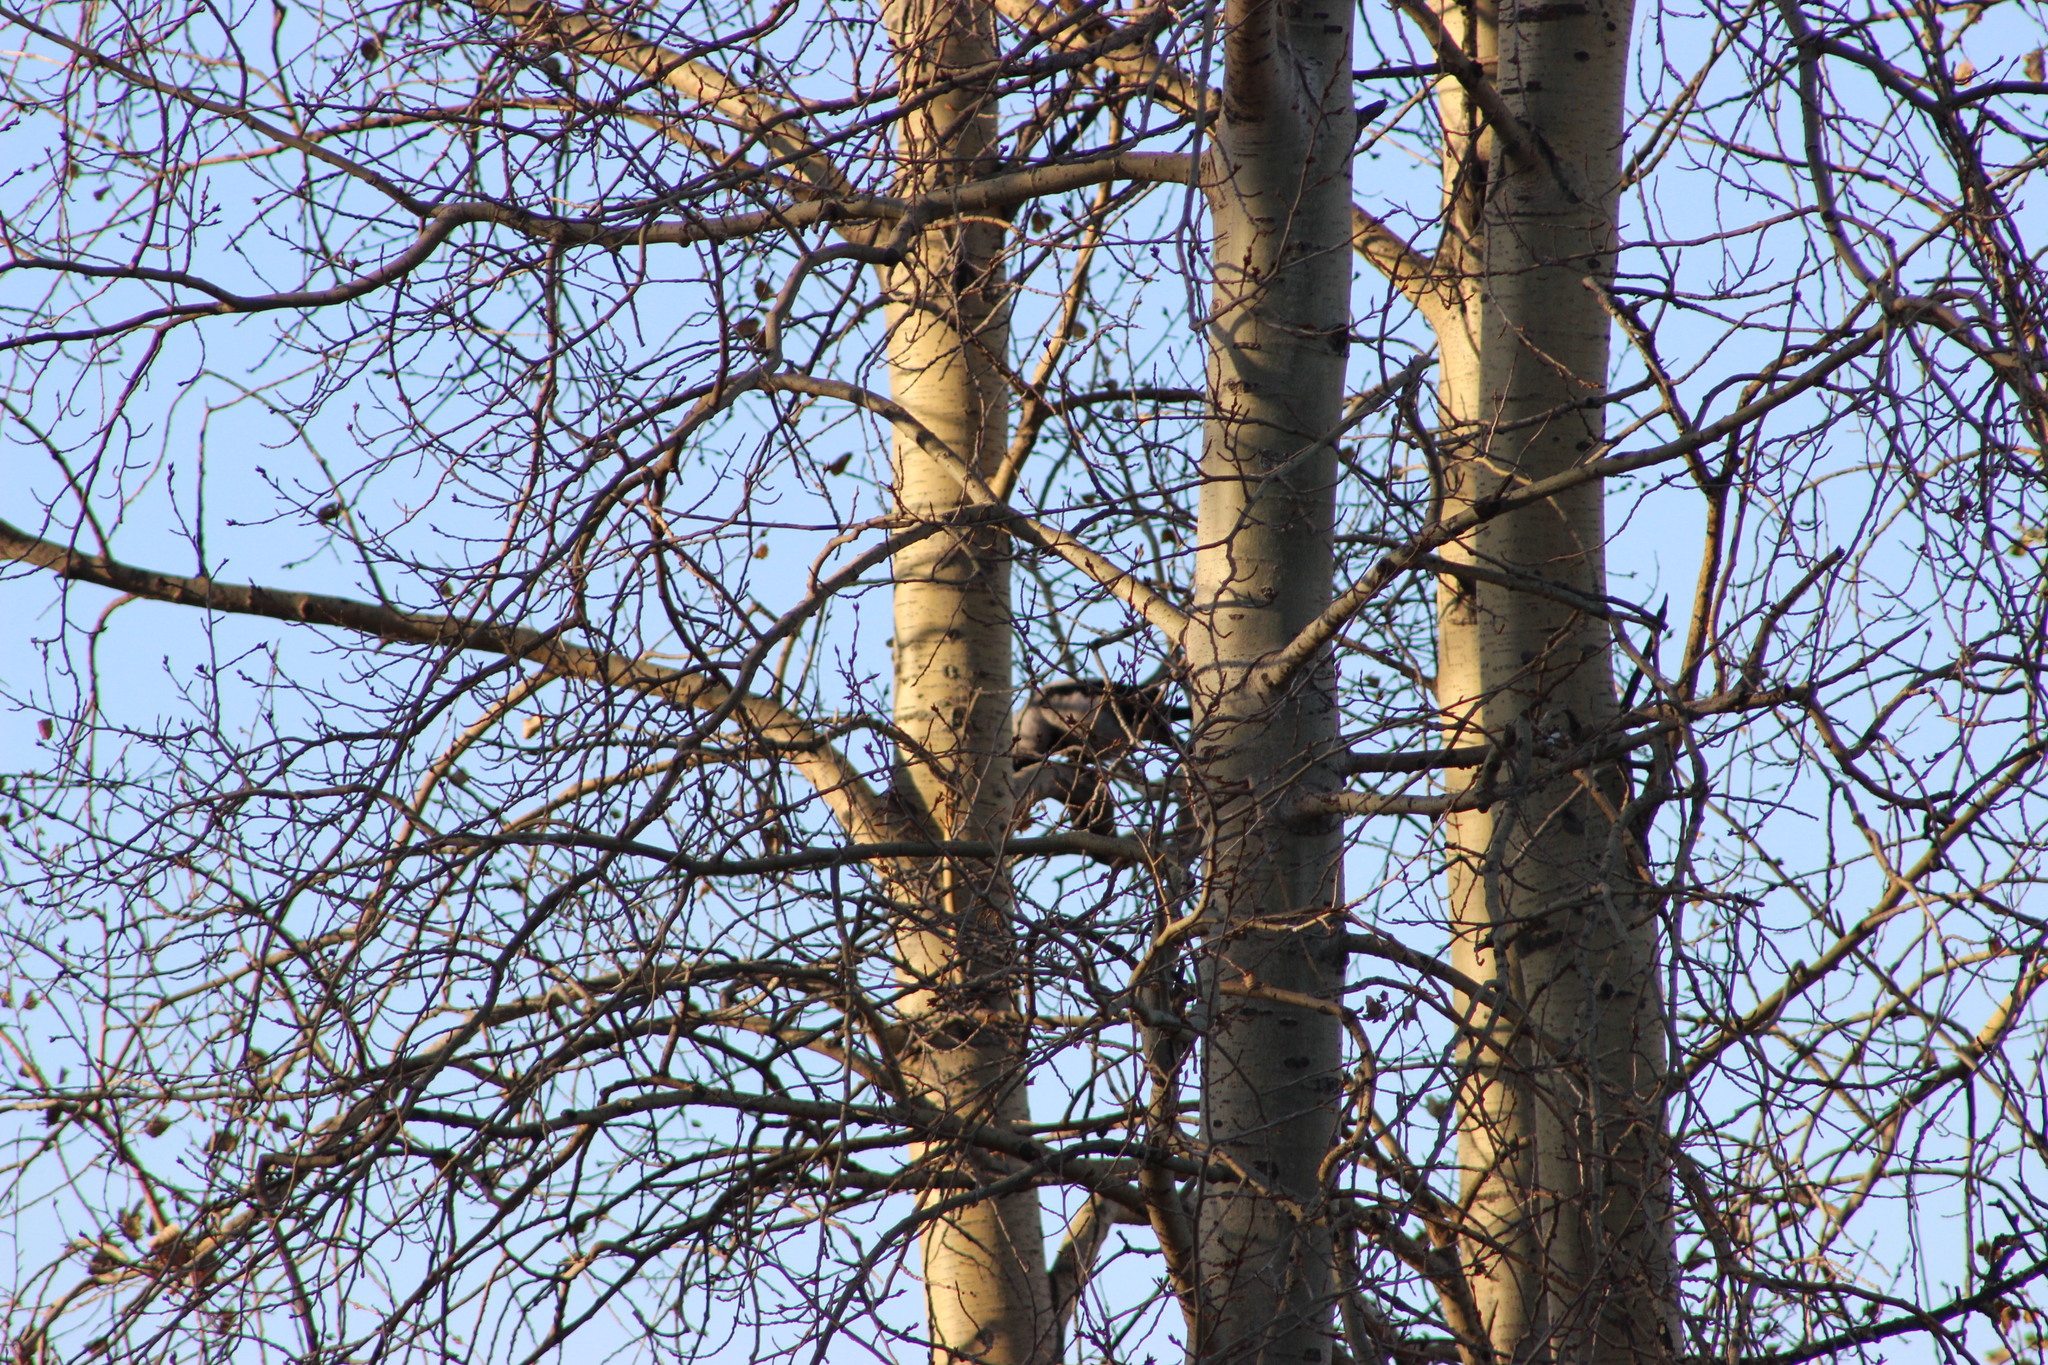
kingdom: Animalia
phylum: Chordata
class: Aves
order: Passeriformes
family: Corvidae
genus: Corvus
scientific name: Corvus cornix
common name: Hooded crow
